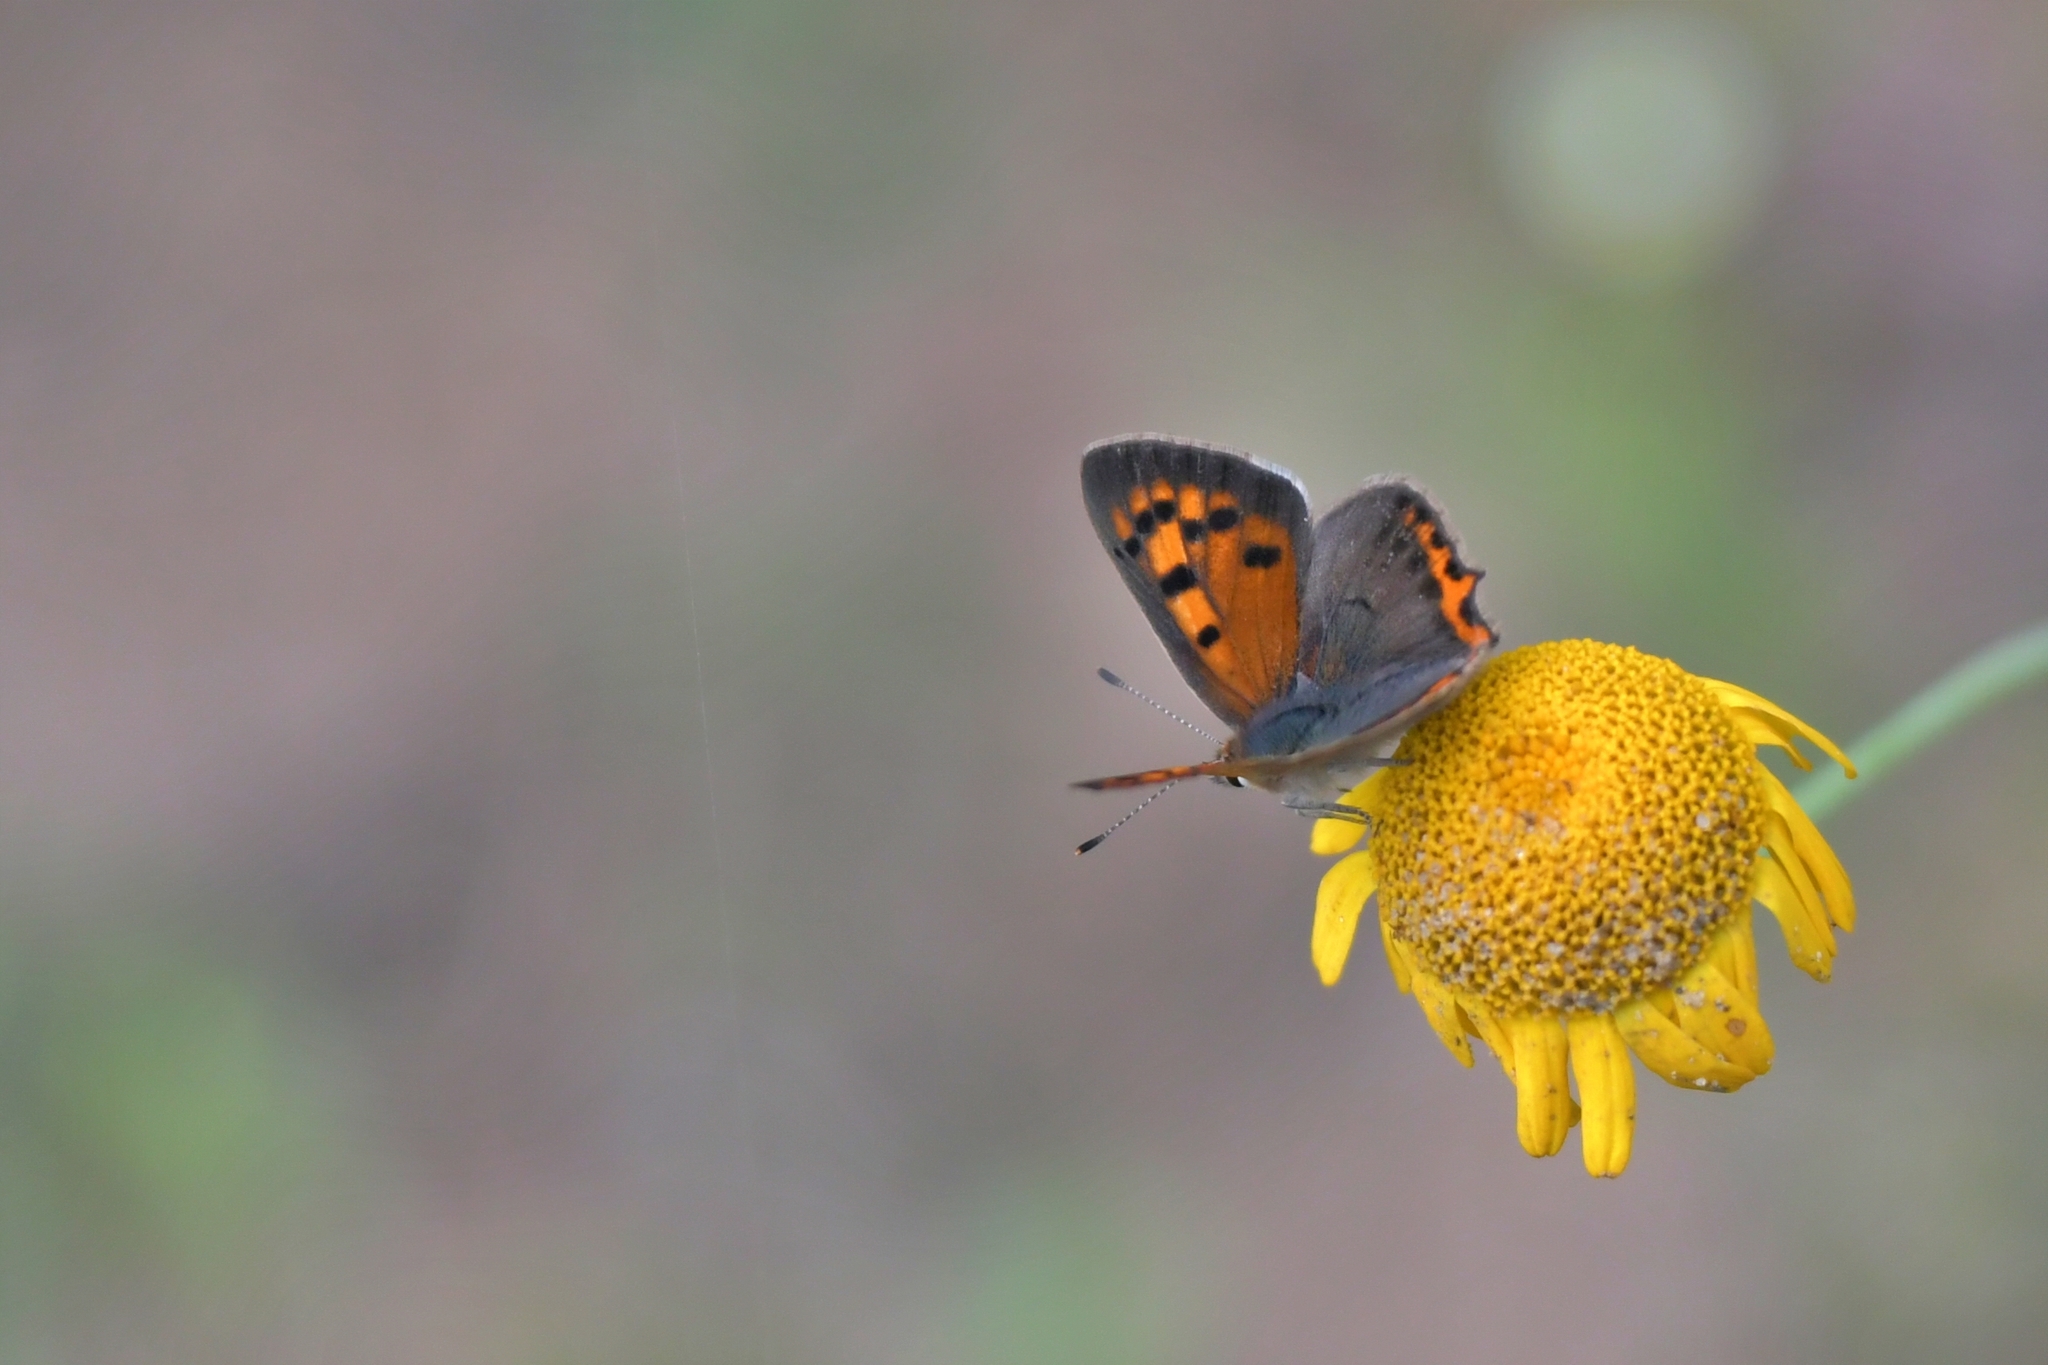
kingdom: Animalia
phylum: Arthropoda
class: Insecta
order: Lepidoptera
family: Lycaenidae
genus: Lycaena
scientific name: Lycaena phlaeas
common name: Small copper
